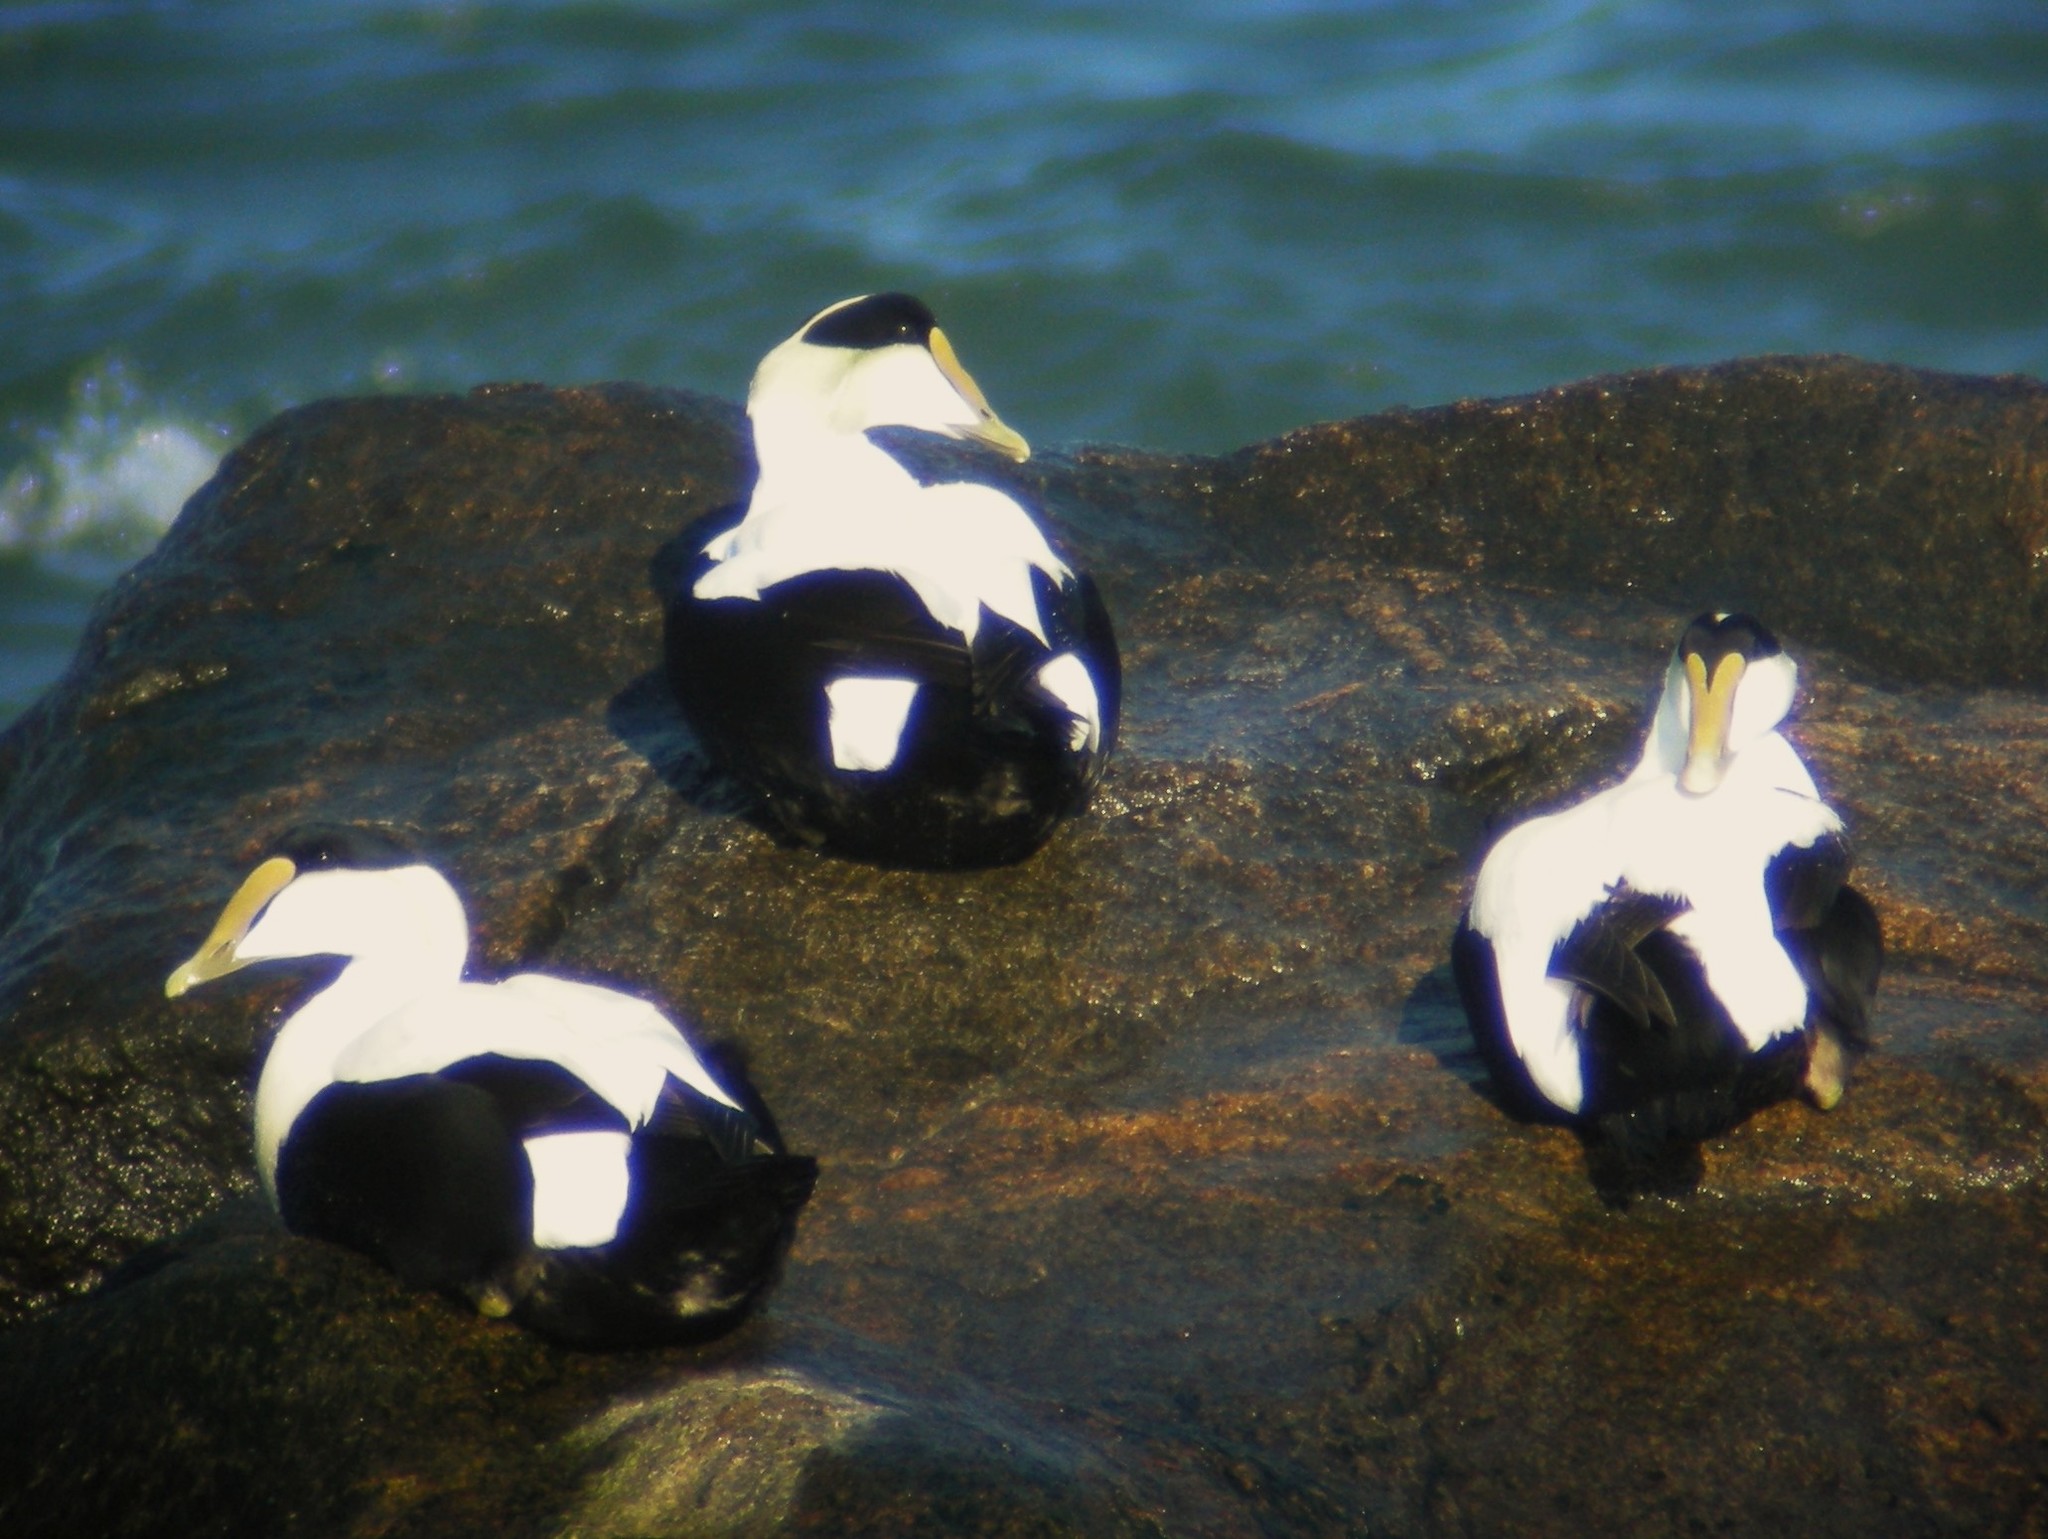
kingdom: Animalia
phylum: Chordata
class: Aves
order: Anseriformes
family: Anatidae
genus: Somateria
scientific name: Somateria mollissima
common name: Common eider
